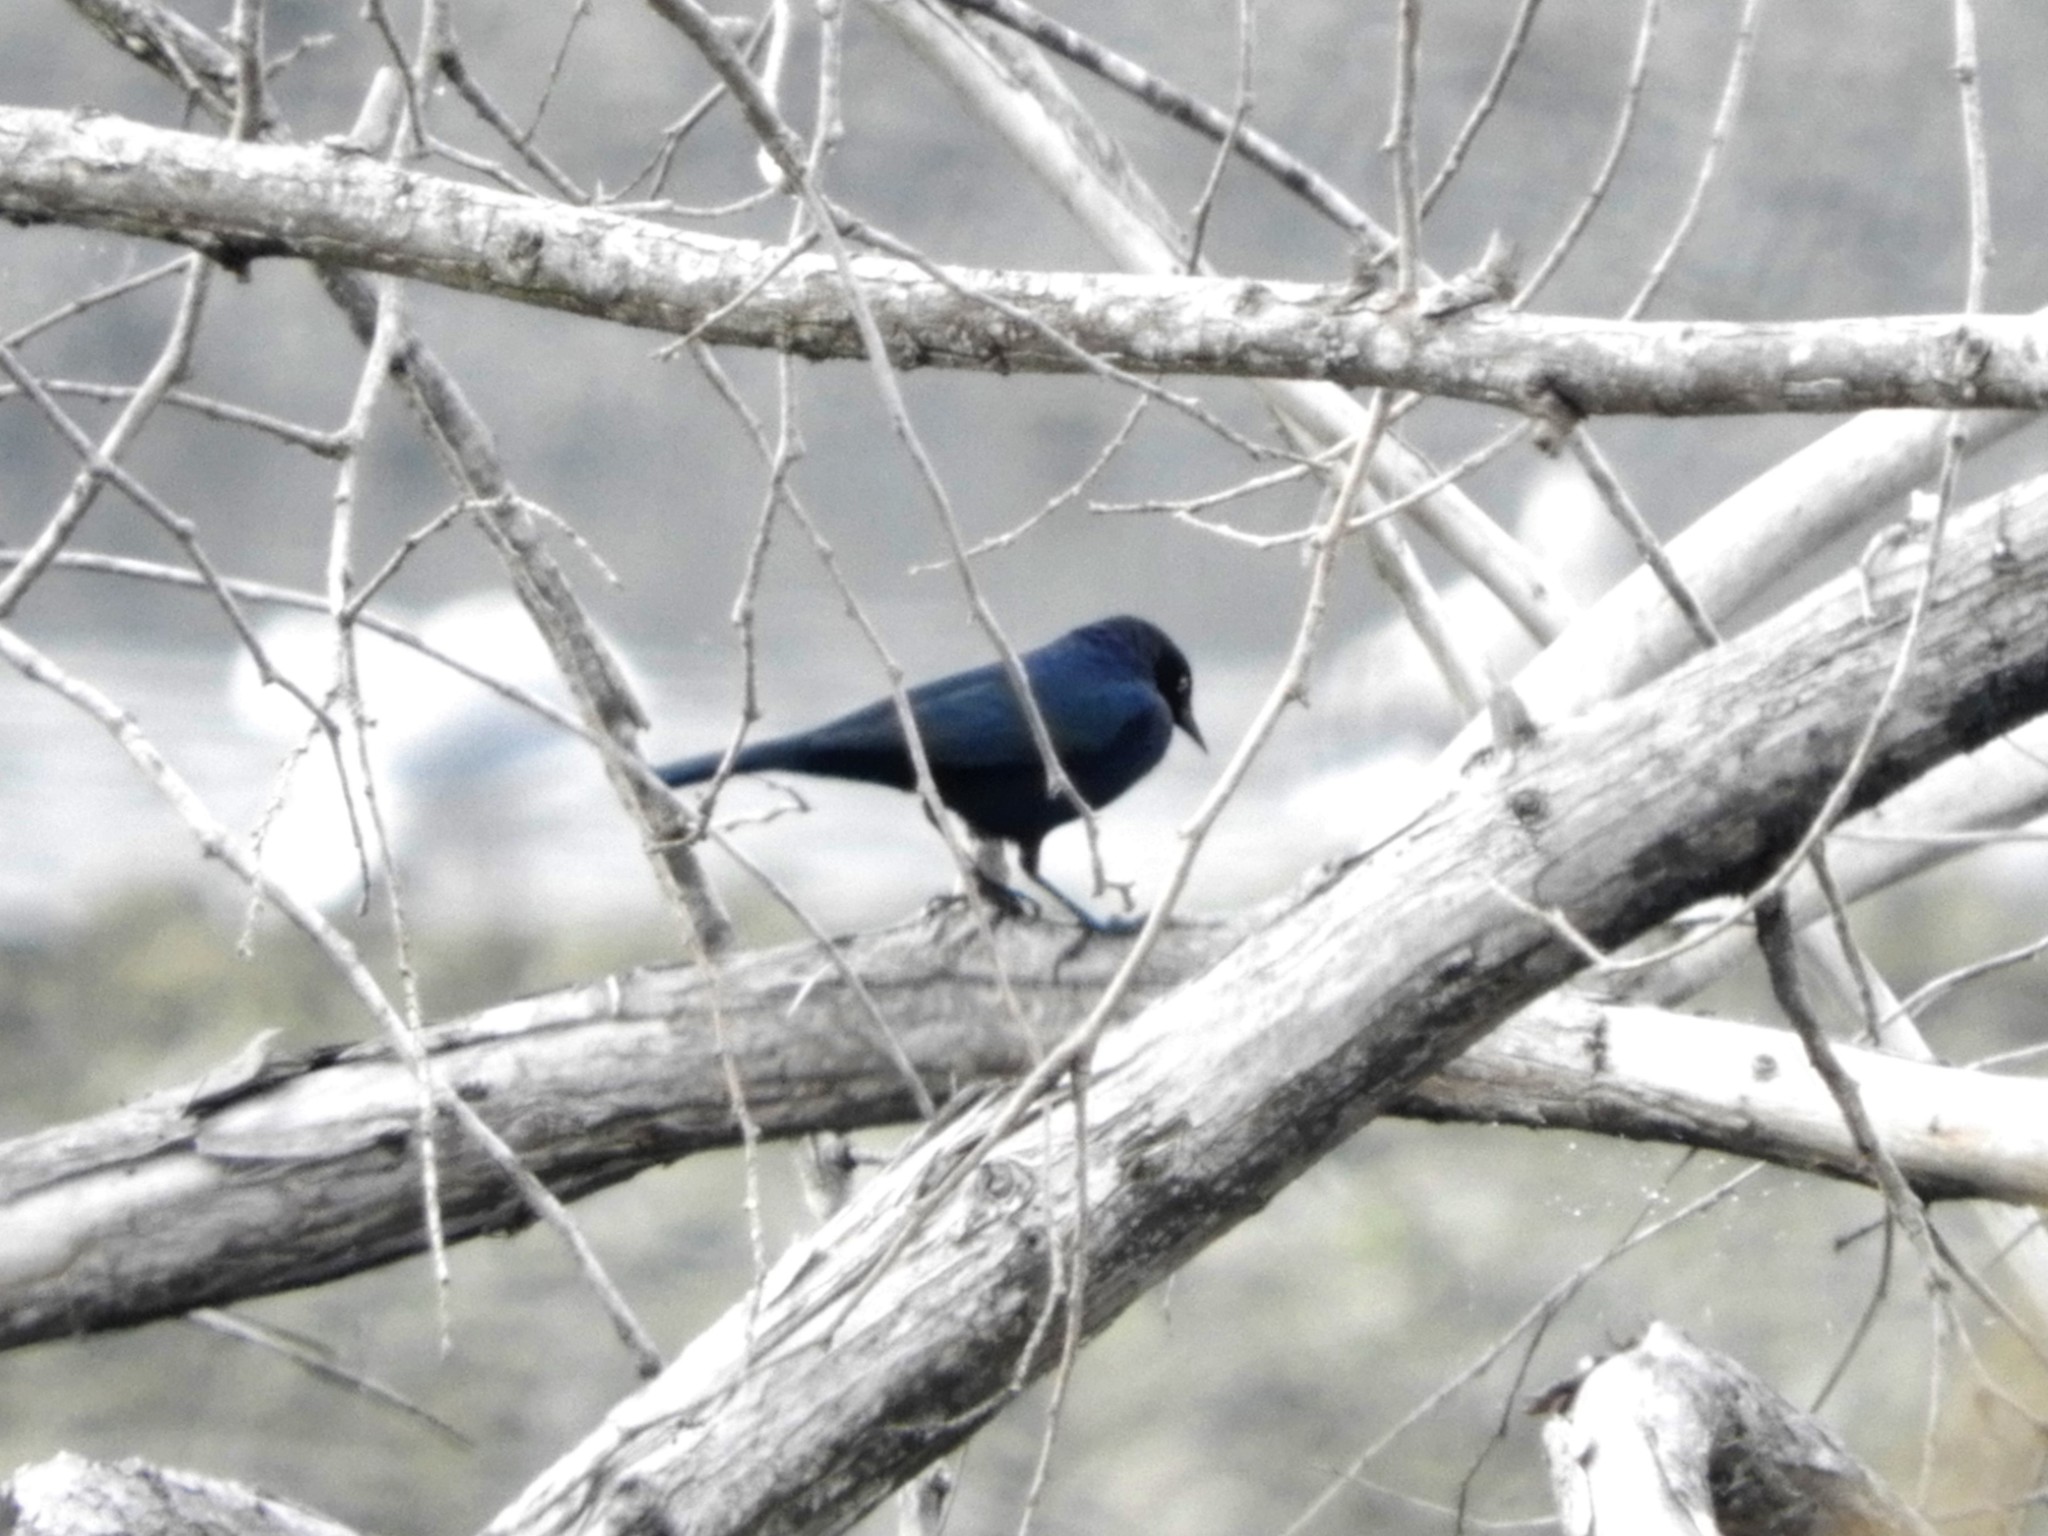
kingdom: Animalia
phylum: Chordata
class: Aves
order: Passeriformes
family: Icteridae
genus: Euphagus
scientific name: Euphagus cyanocephalus
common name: Brewer's blackbird
